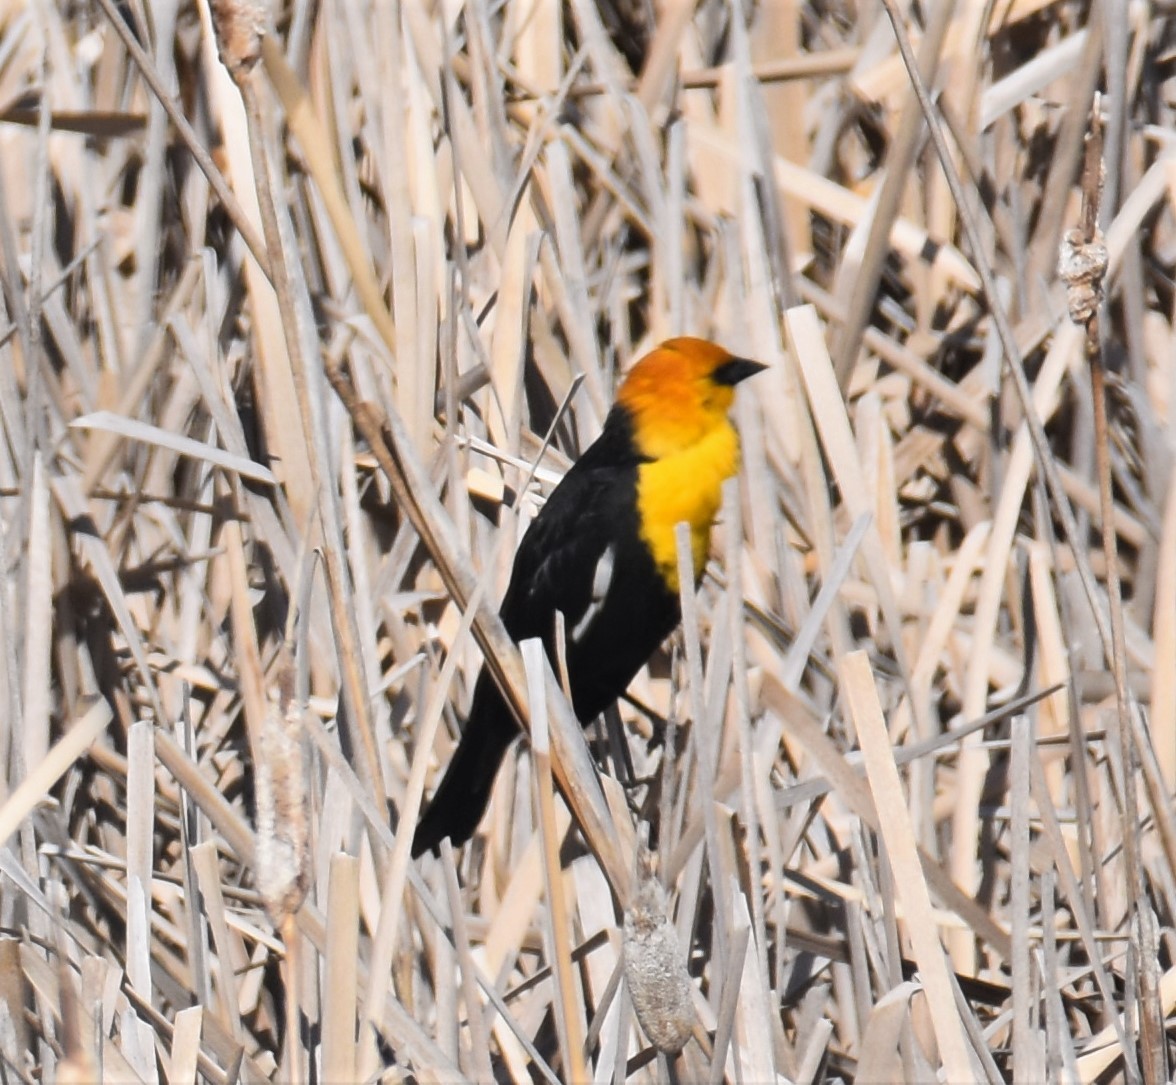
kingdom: Animalia
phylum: Chordata
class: Aves
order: Passeriformes
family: Icteridae
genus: Xanthocephalus
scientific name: Xanthocephalus xanthocephalus
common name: Yellow-headed blackbird
